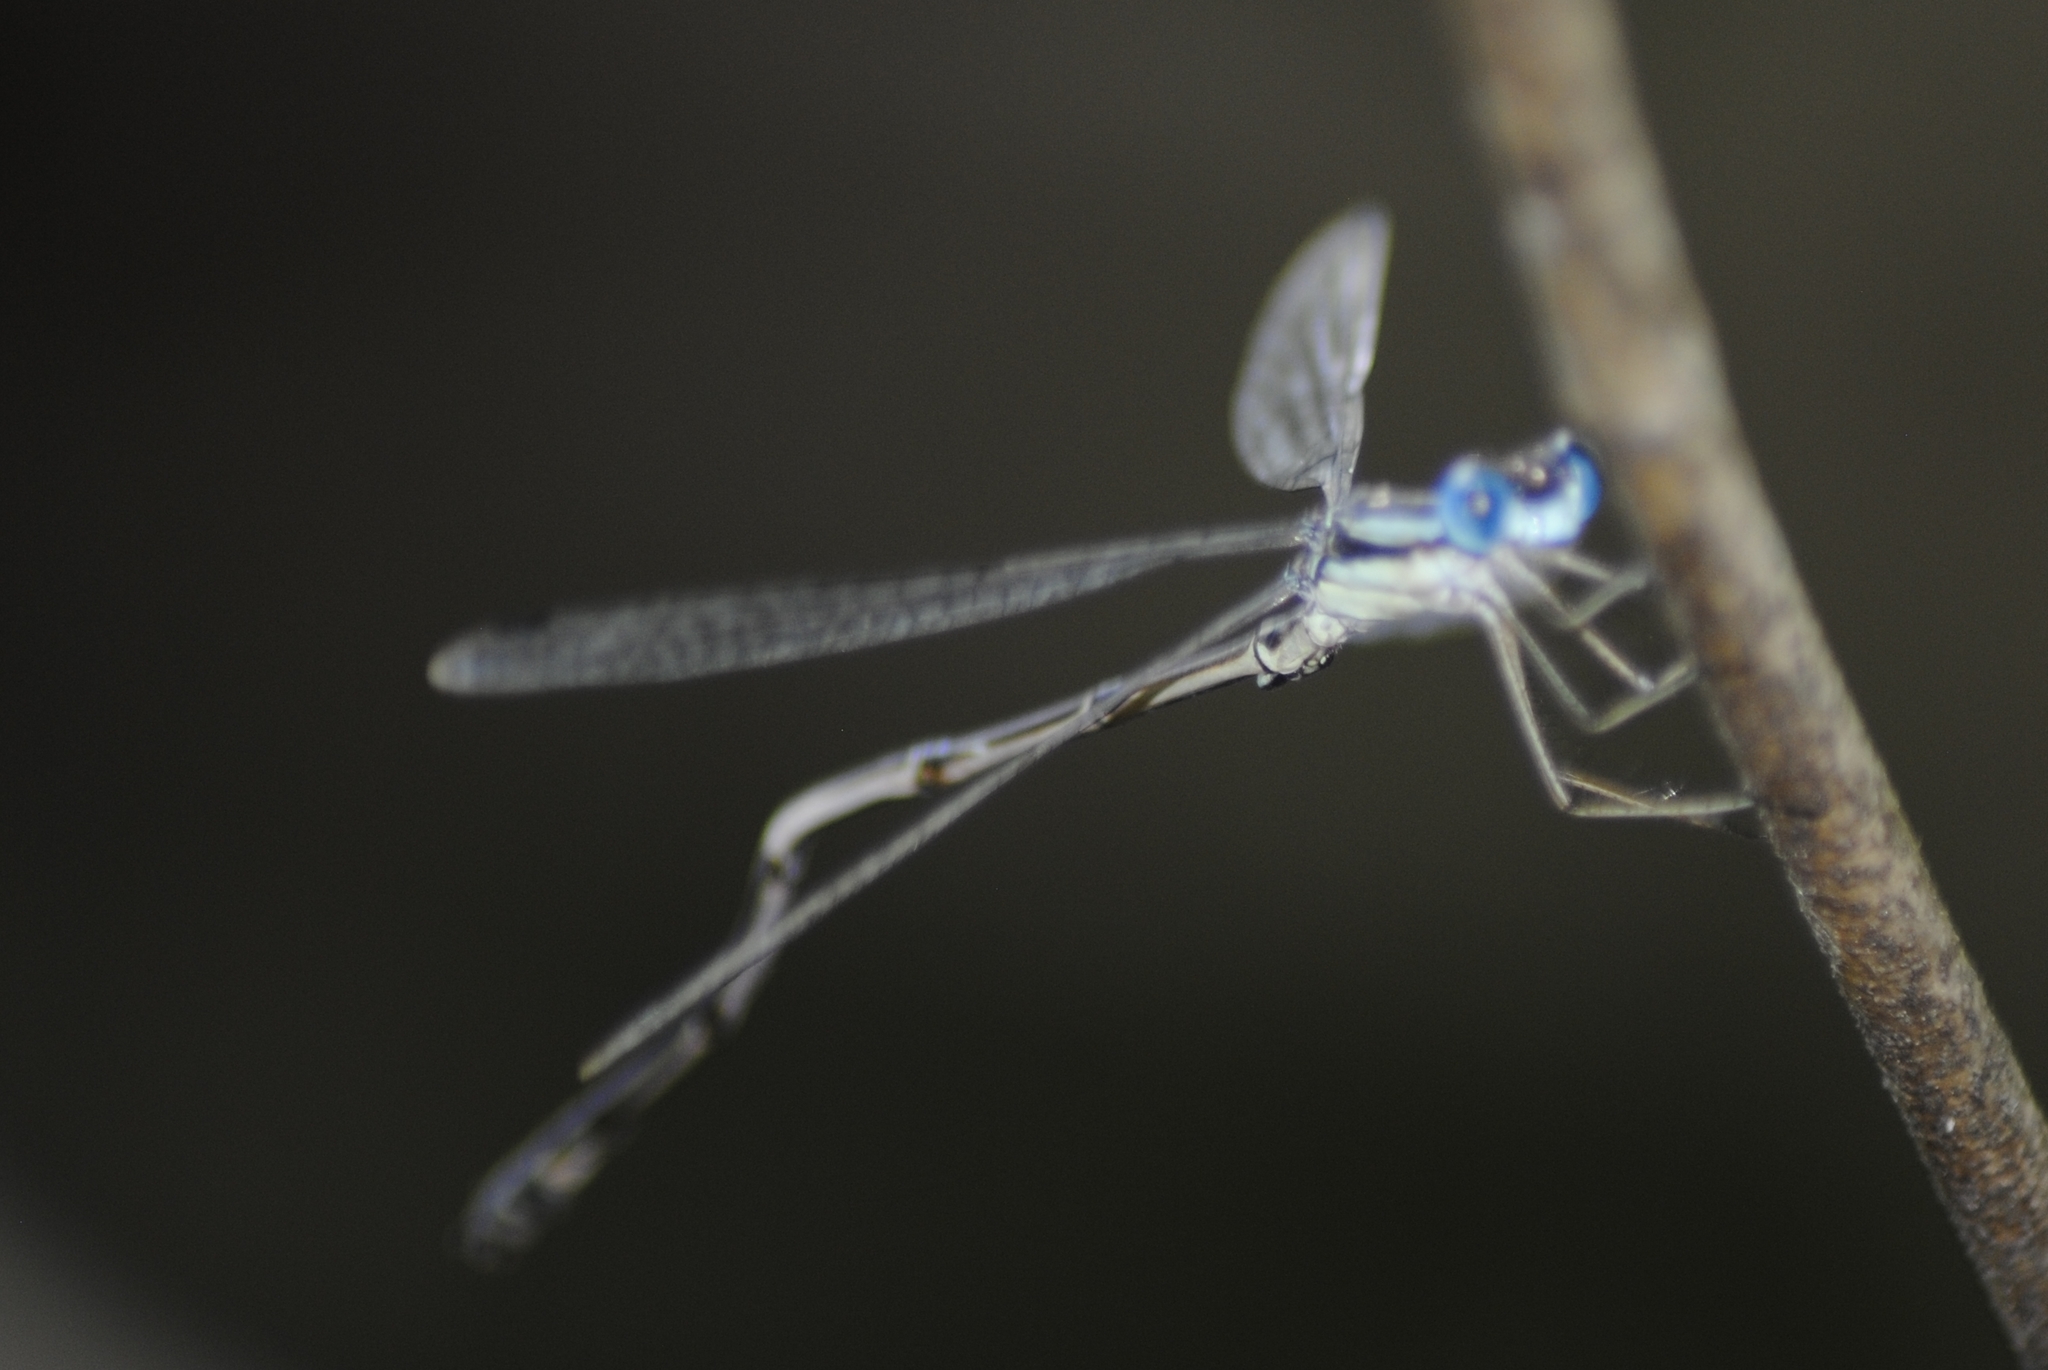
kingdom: Animalia
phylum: Arthropoda
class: Insecta
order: Odonata
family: Lestidae
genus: Lestes
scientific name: Lestes rectangularis
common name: Slender spreadwing
